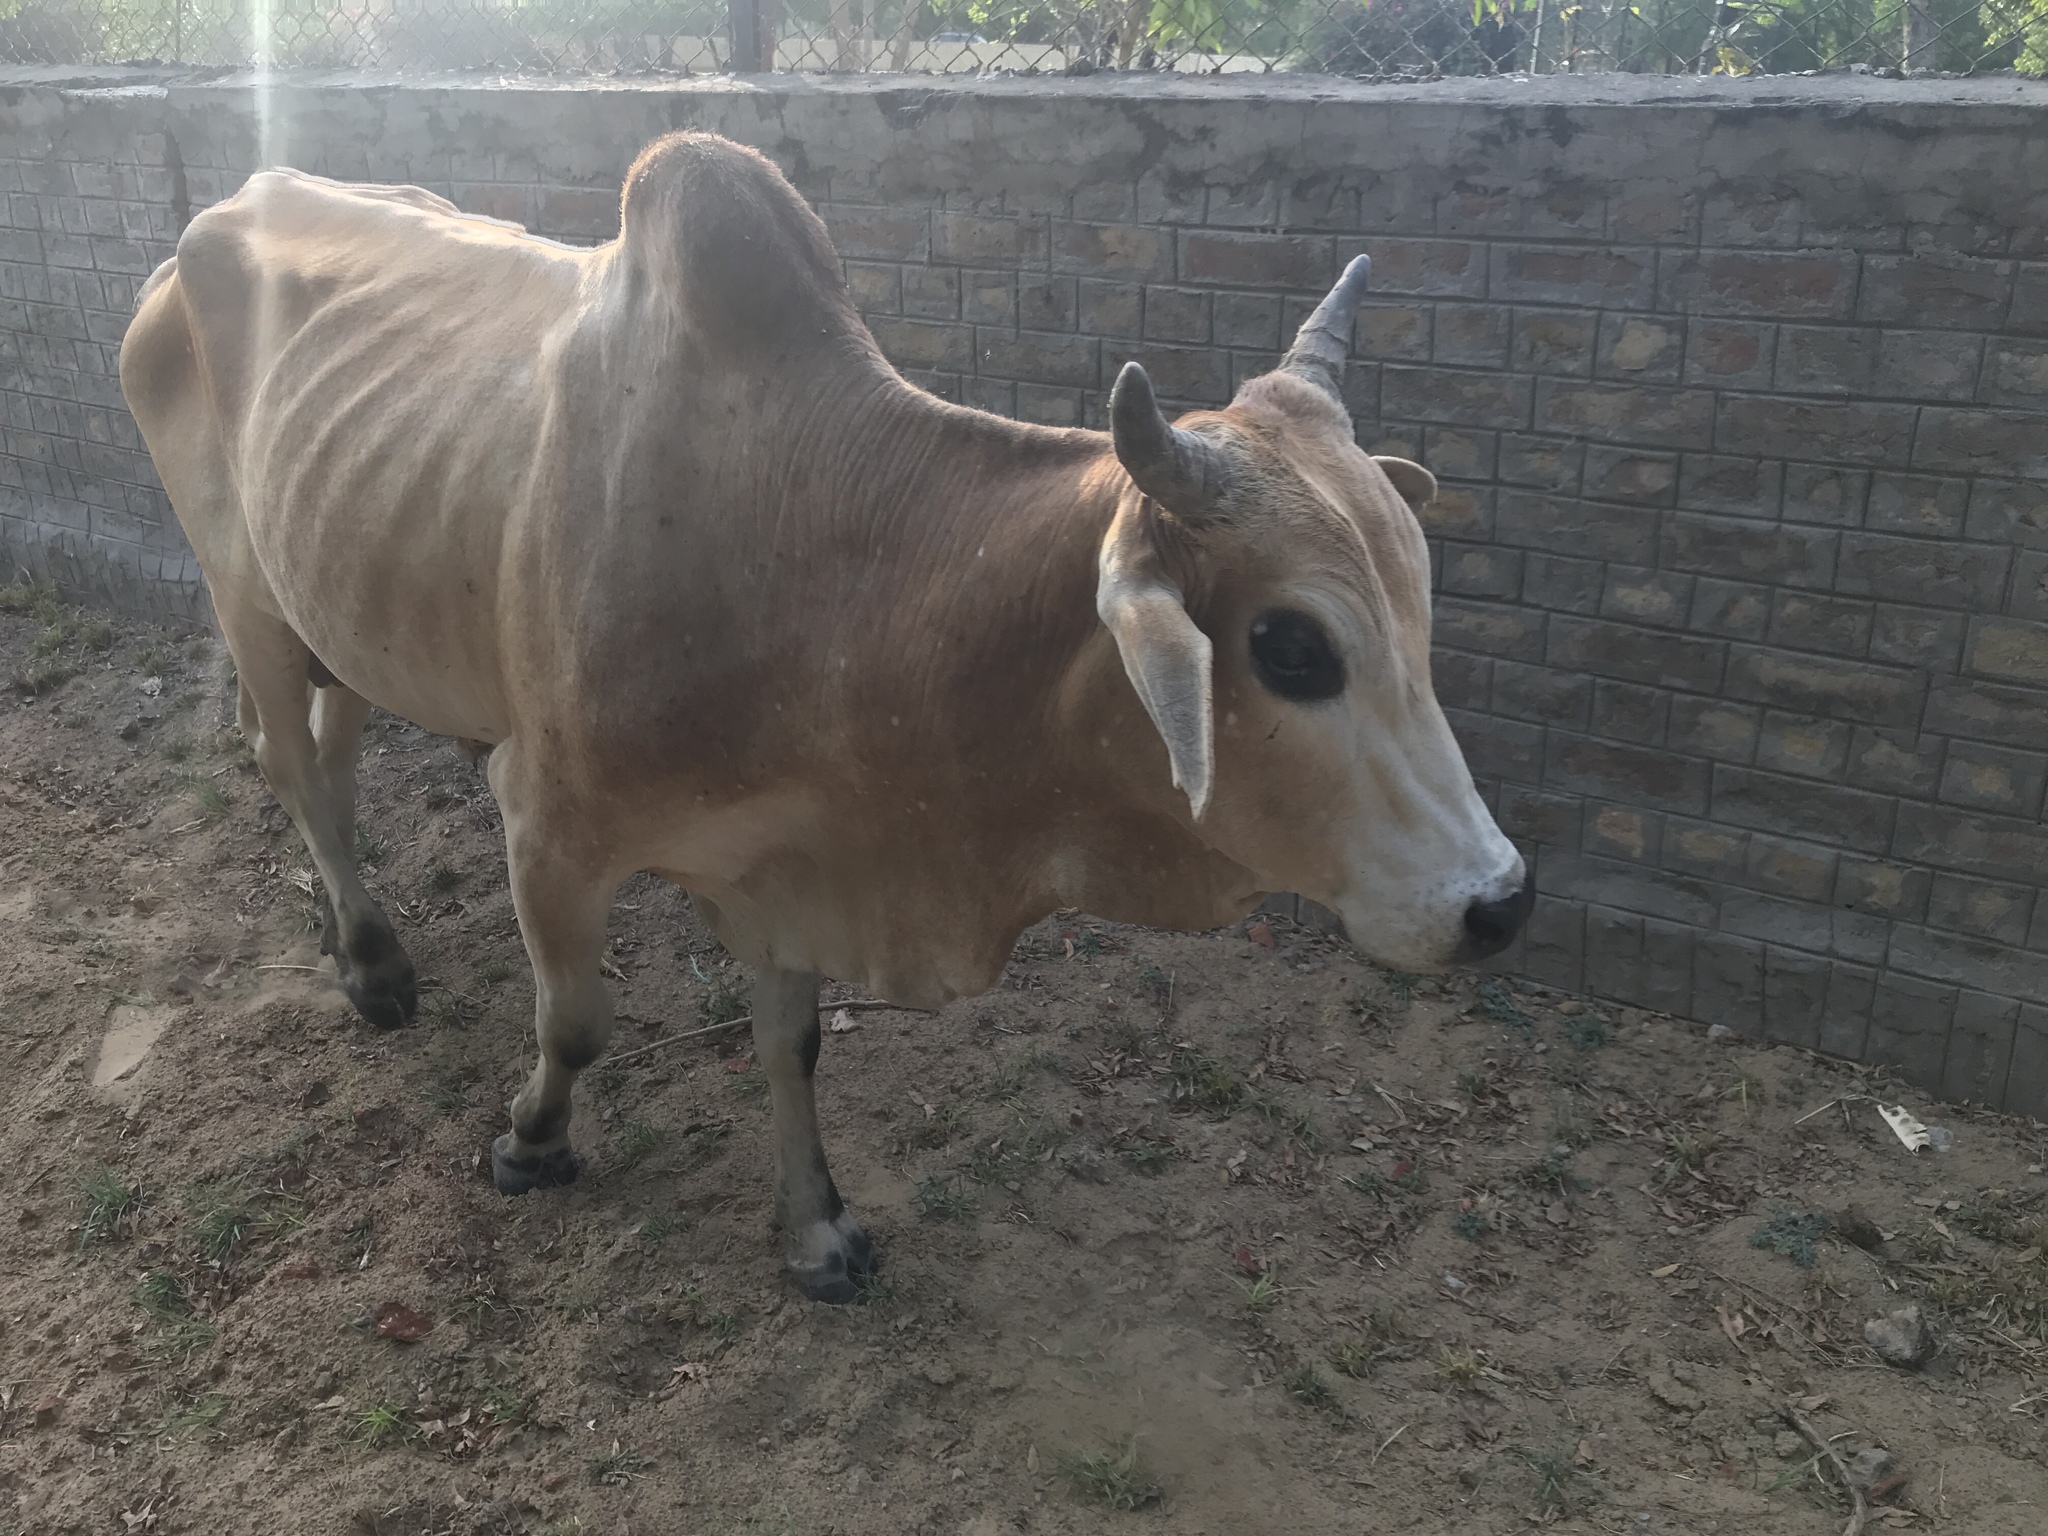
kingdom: Animalia
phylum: Chordata
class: Mammalia
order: Artiodactyla
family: Bovidae
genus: Bos
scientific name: Bos taurus
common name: Domesticated cattle
